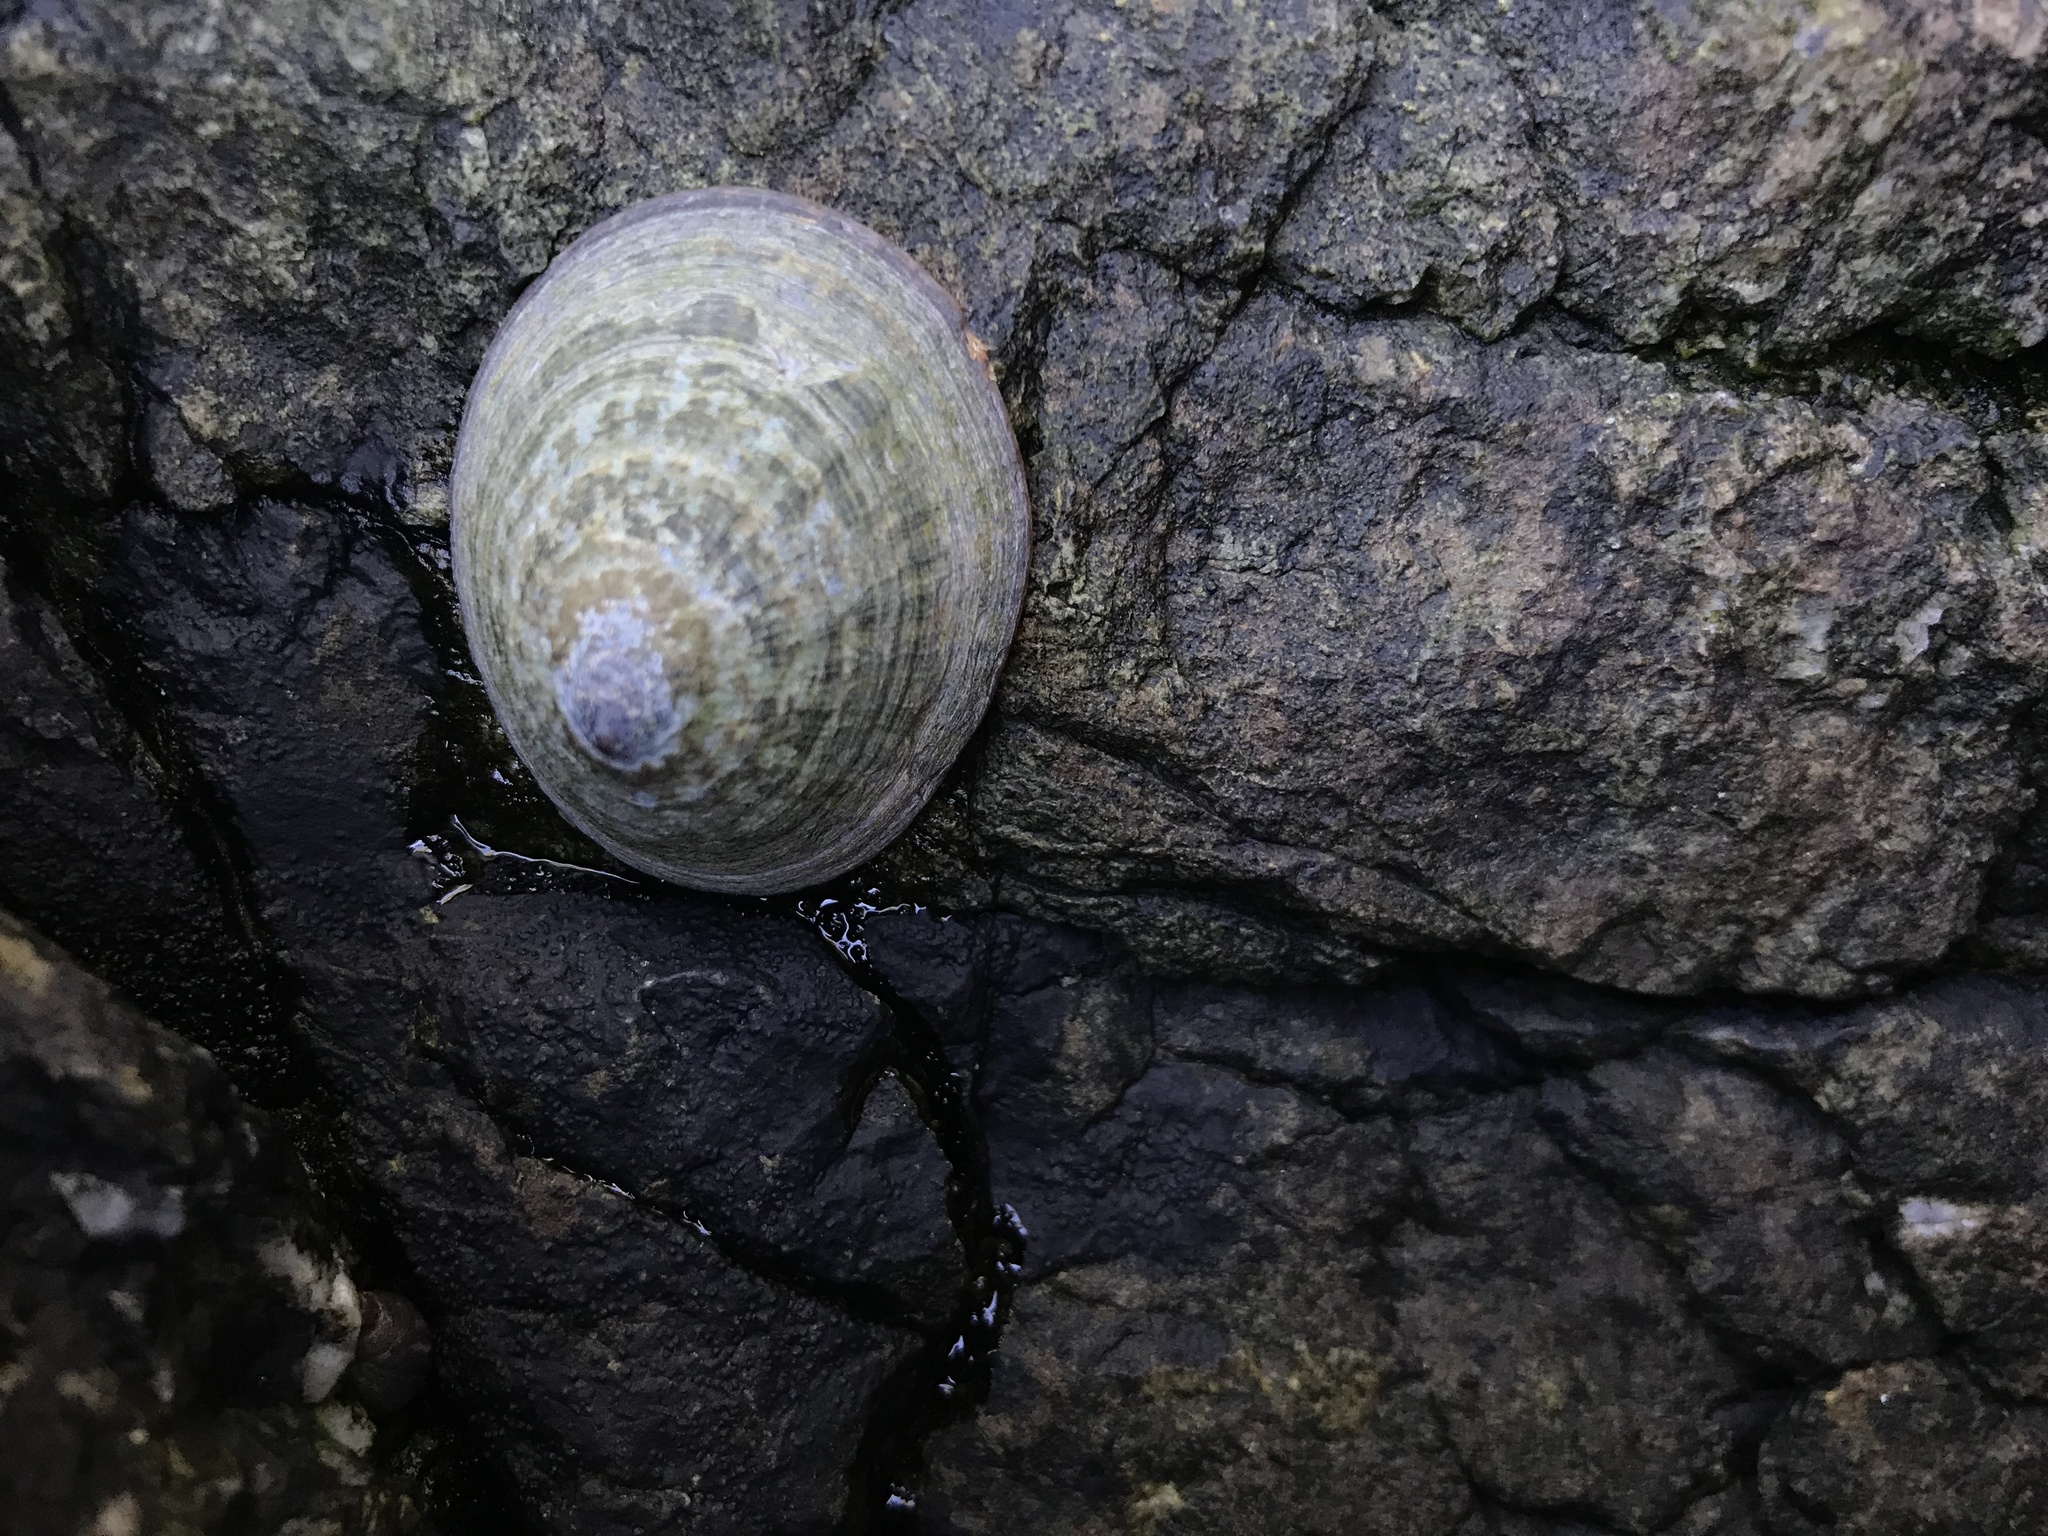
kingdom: Animalia
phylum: Mollusca
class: Gastropoda
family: Lottiidae
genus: Lottia
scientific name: Lottia persona
